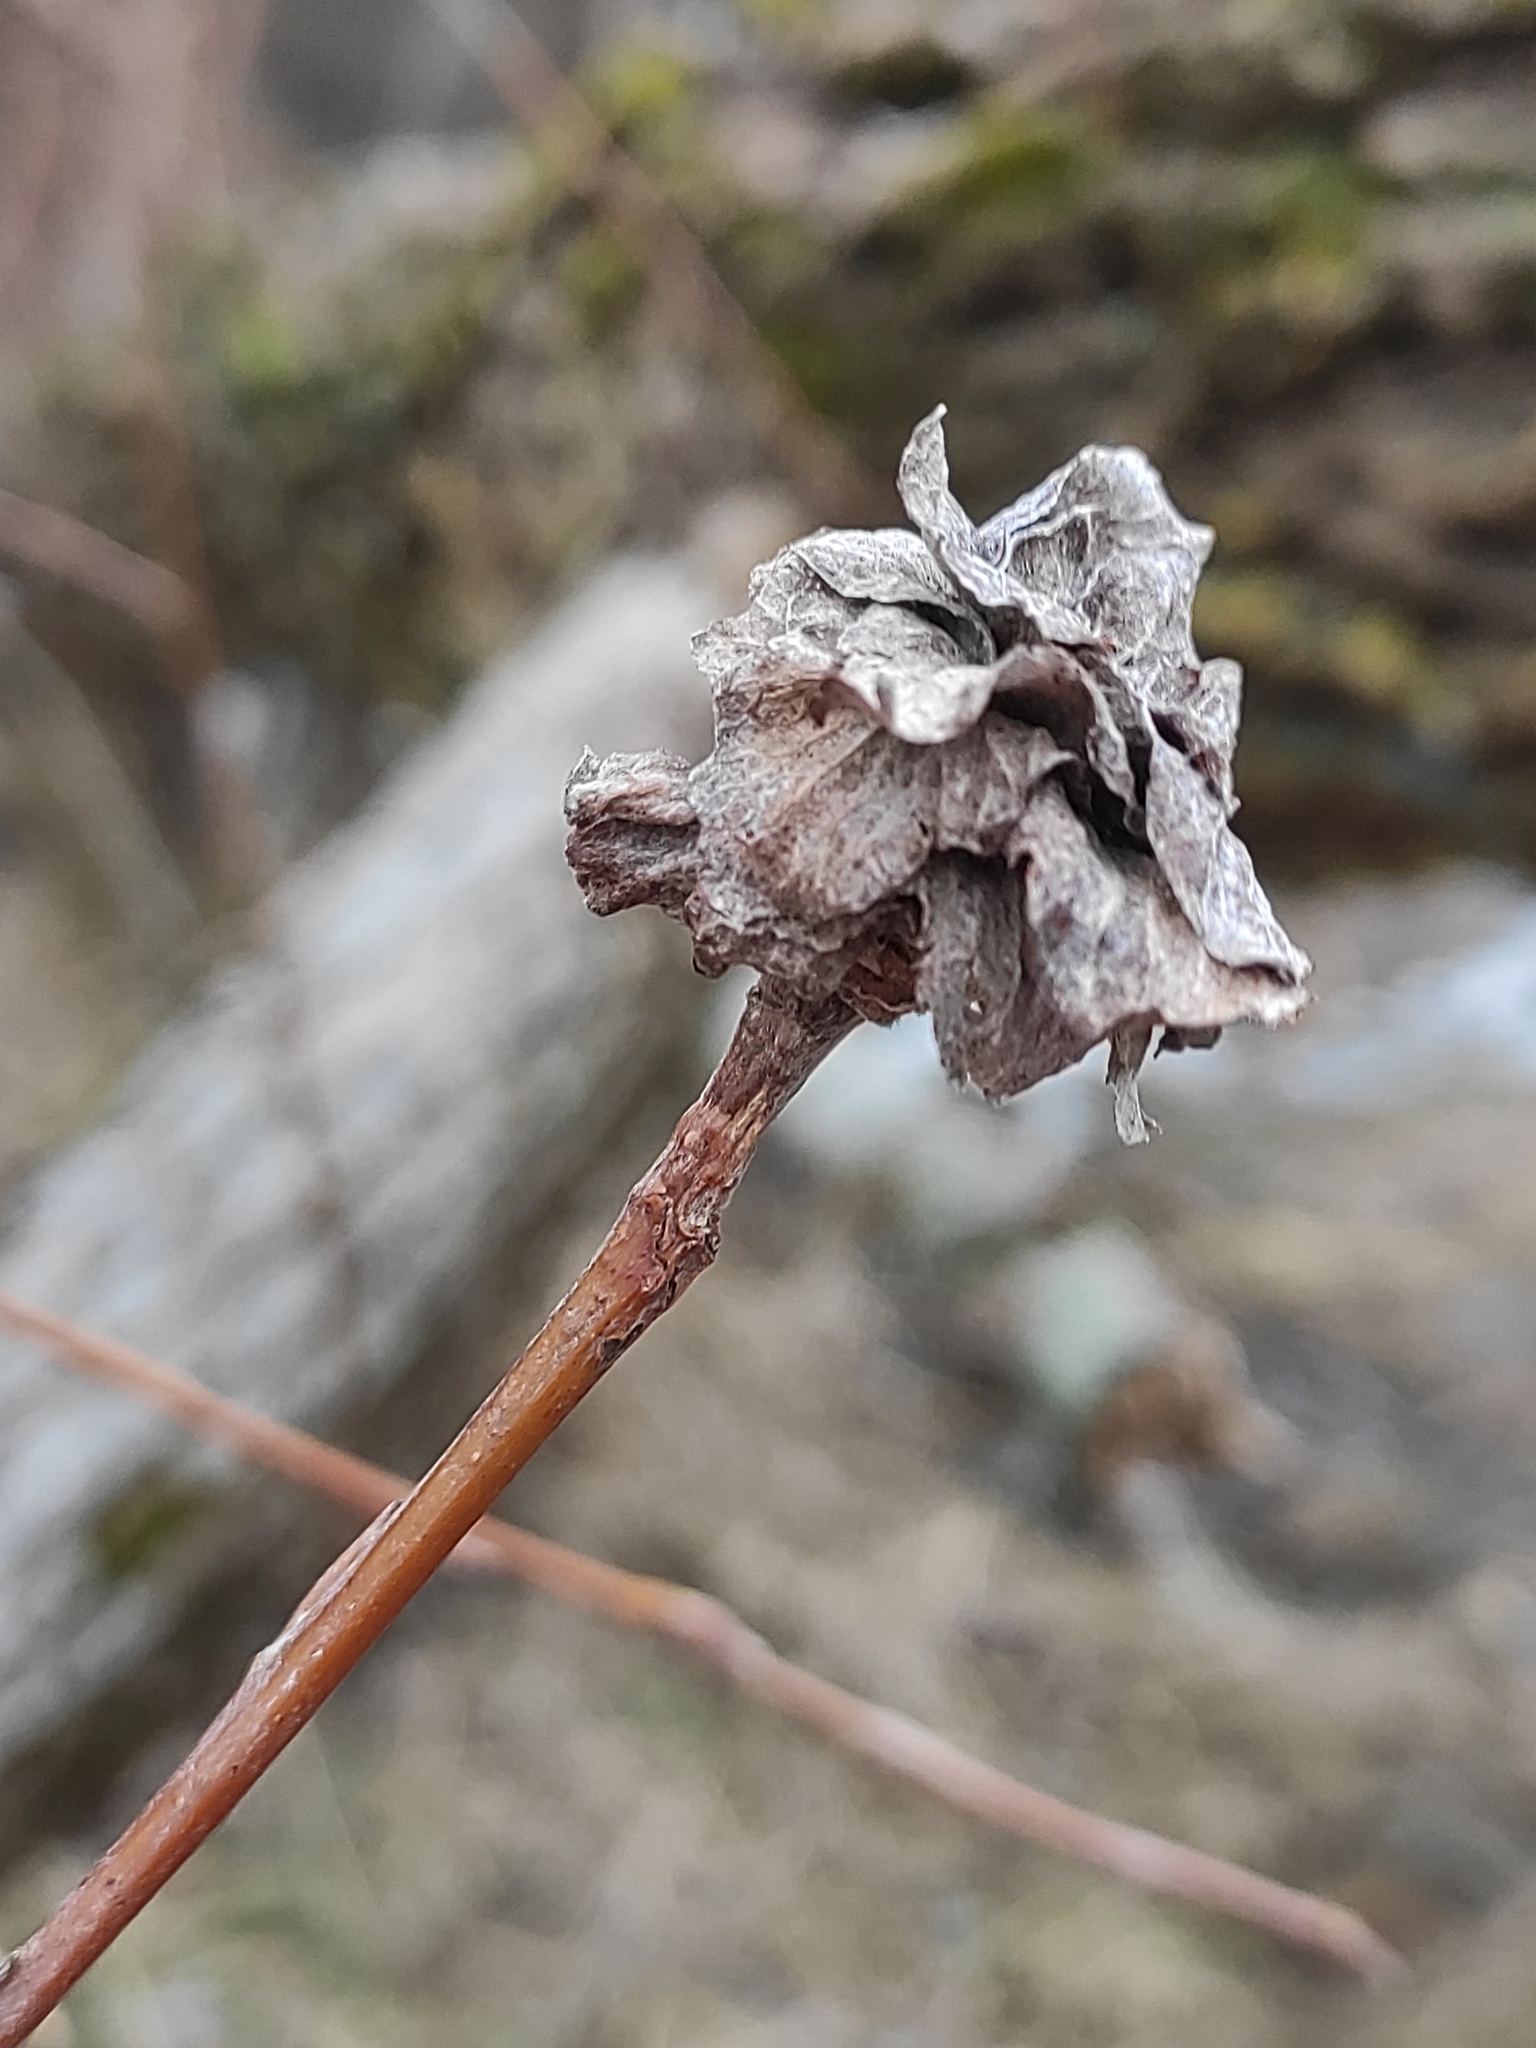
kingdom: Animalia
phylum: Arthropoda
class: Insecta
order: Diptera
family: Cecidomyiidae
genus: Rabdophaga
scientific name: Rabdophaga rosaria
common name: Willow rose gall midge
